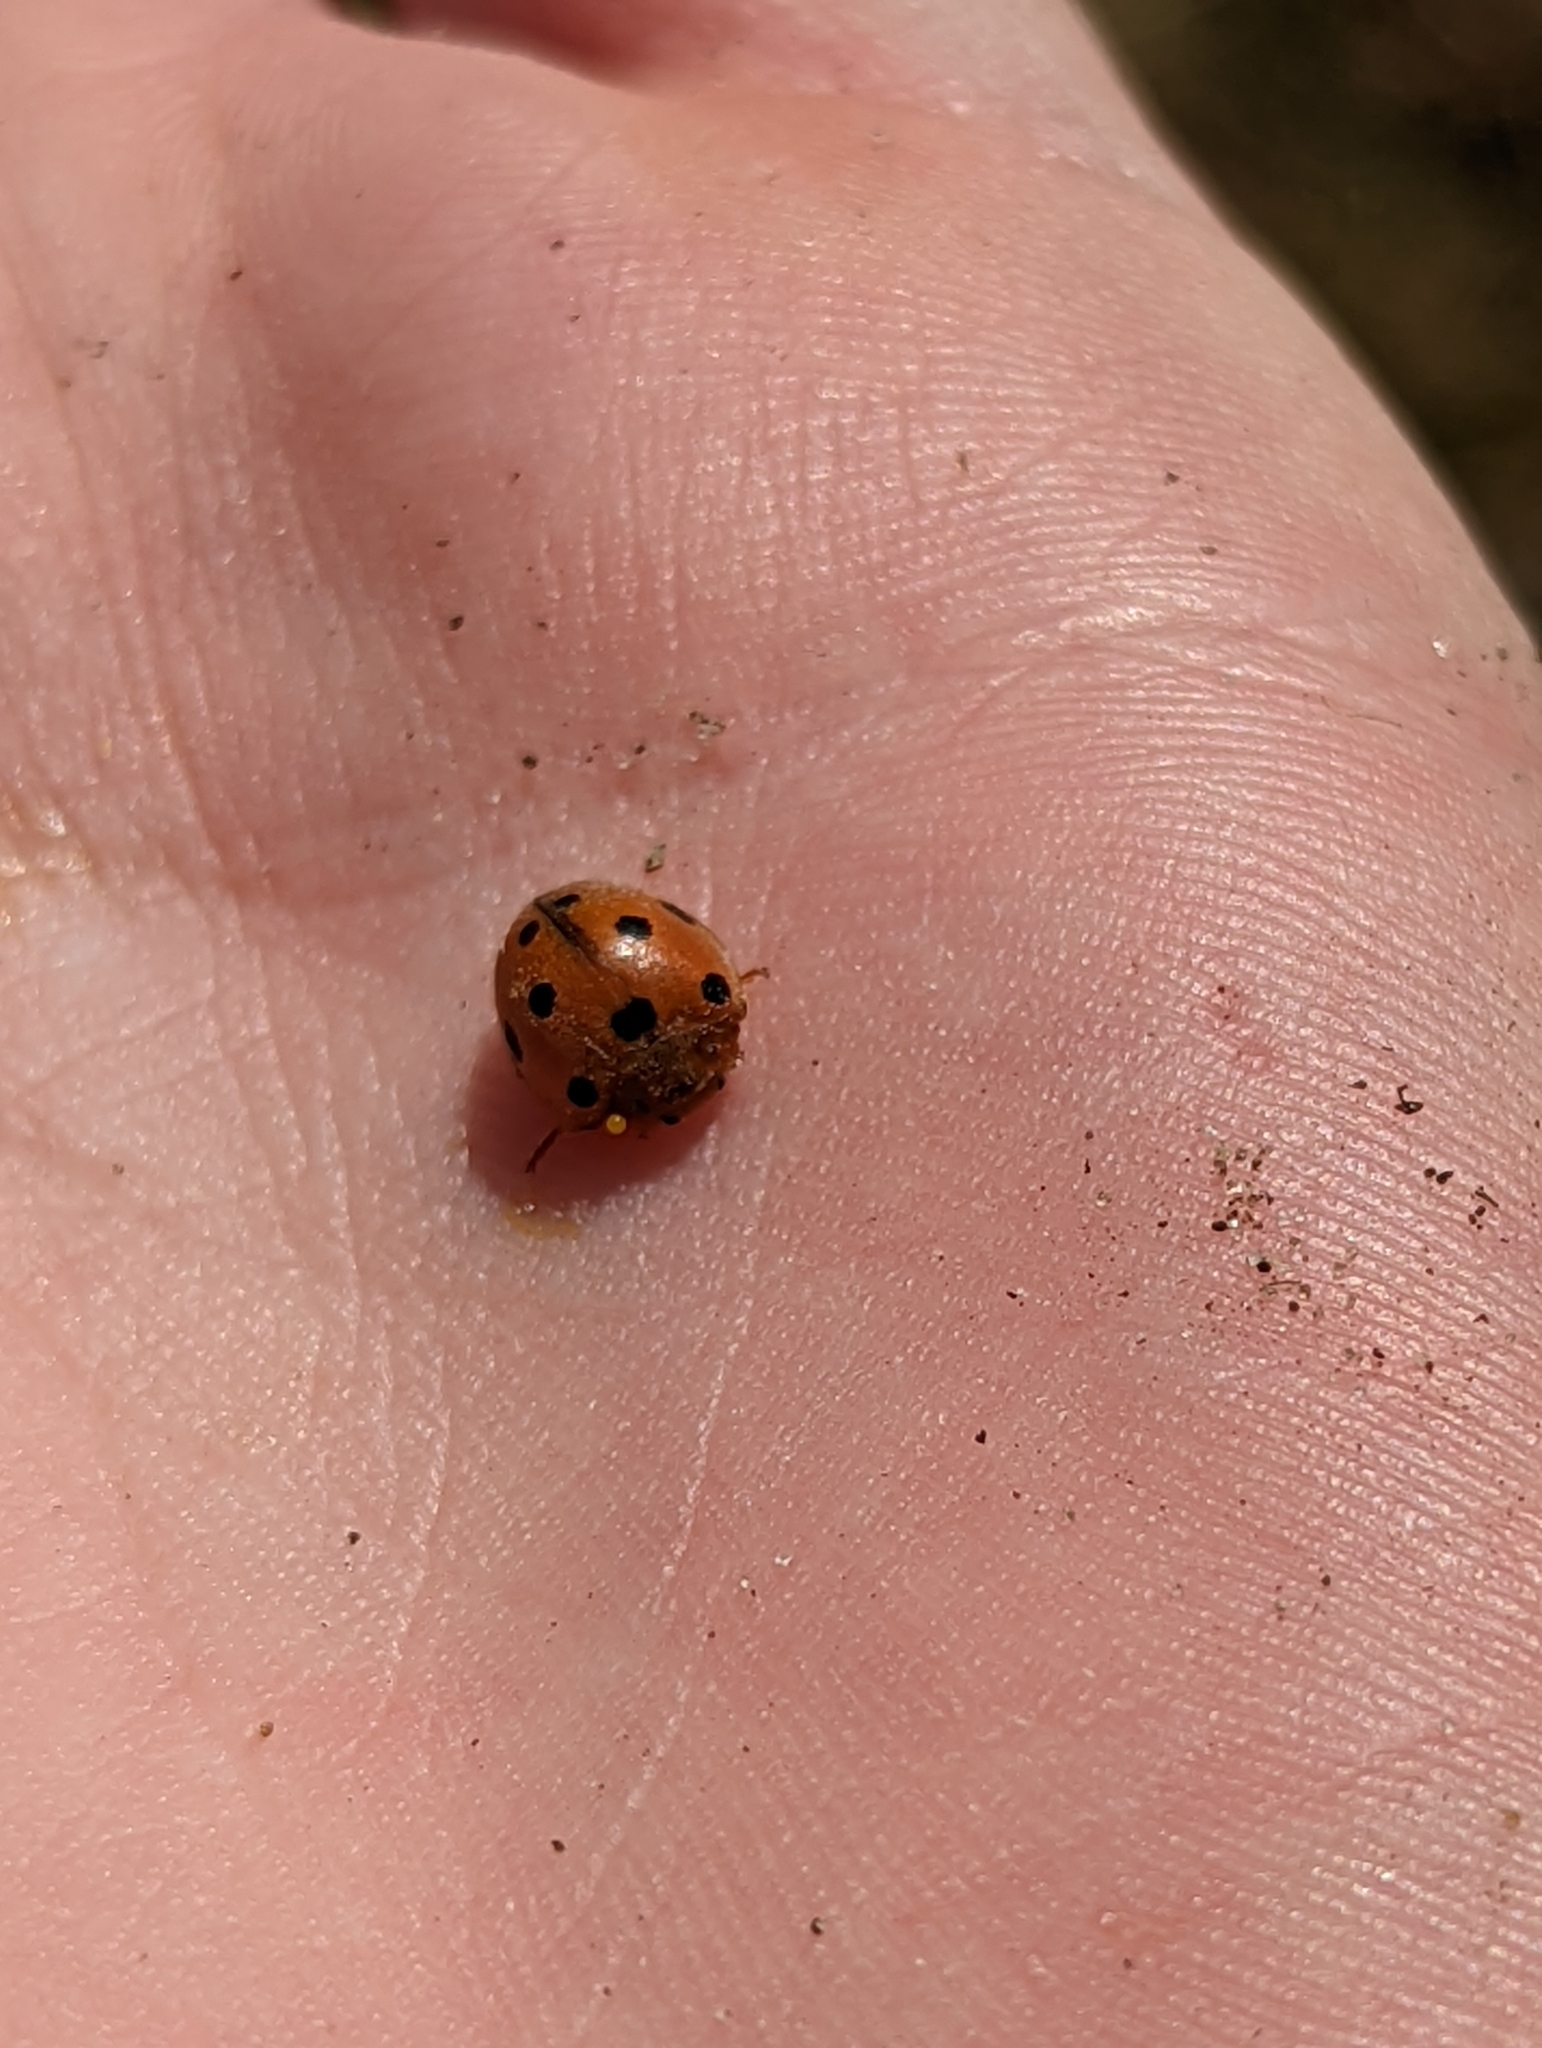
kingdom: Animalia
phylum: Arthropoda
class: Insecta
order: Coleoptera
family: Coccinellidae
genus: Henosepilachna
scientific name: Henosepilachna argus
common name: Bryony ladybird
